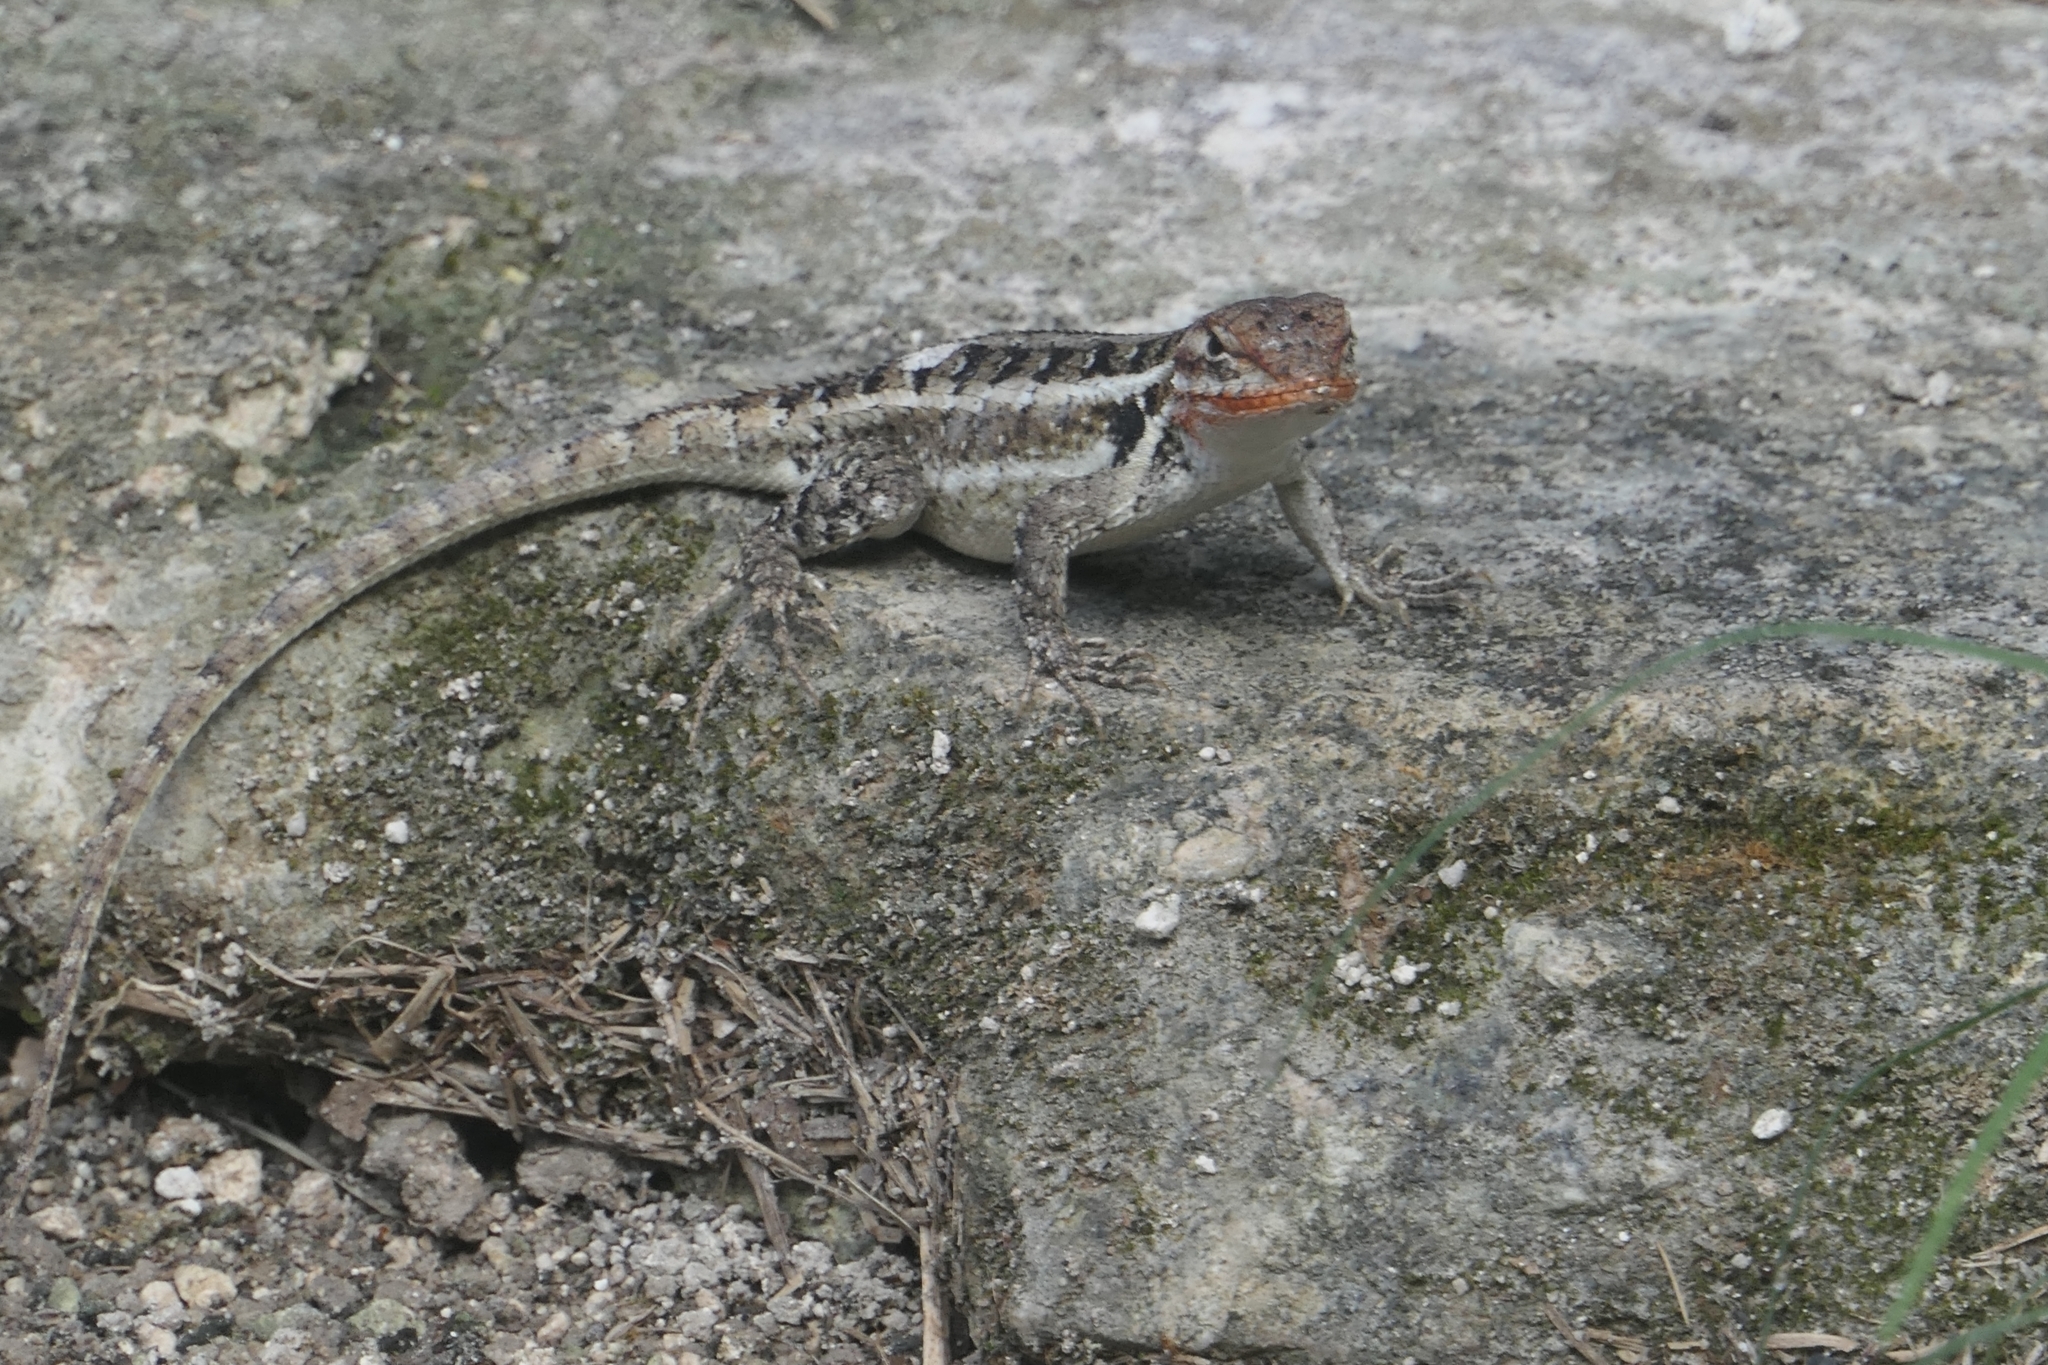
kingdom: Animalia
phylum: Chordata
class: Squamata
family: Phrynosomatidae
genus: Sceloporus
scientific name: Sceloporus teapensis
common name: Teapen rosebelly lizard
